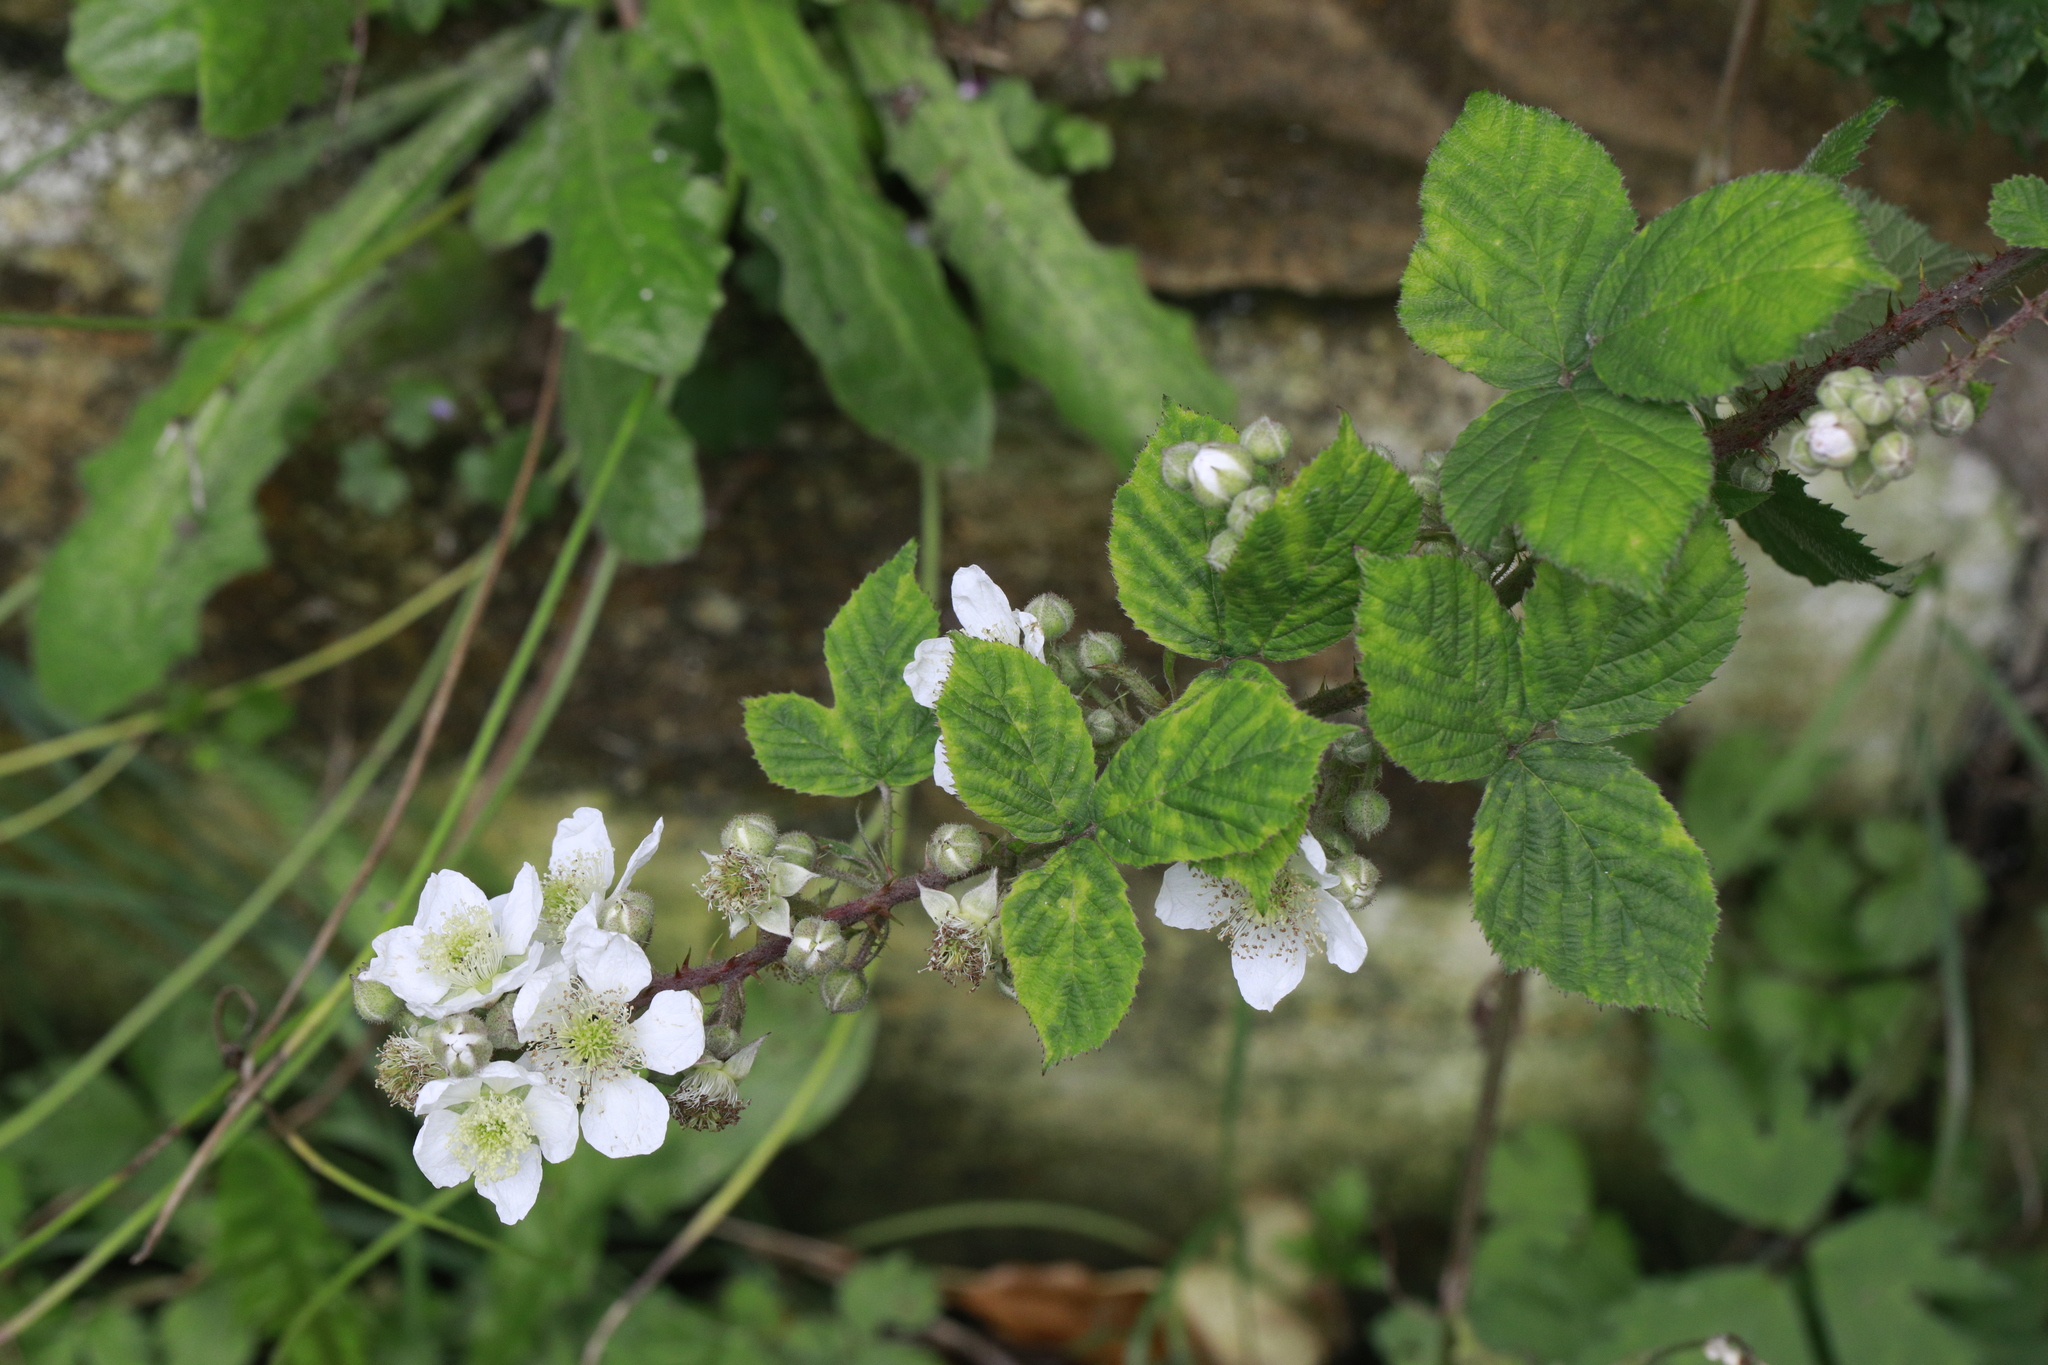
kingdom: Plantae
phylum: Tracheophyta
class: Magnoliopsida
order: Rosales
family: Rosaceae
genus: Rubus
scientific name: Rubus horrefactus
